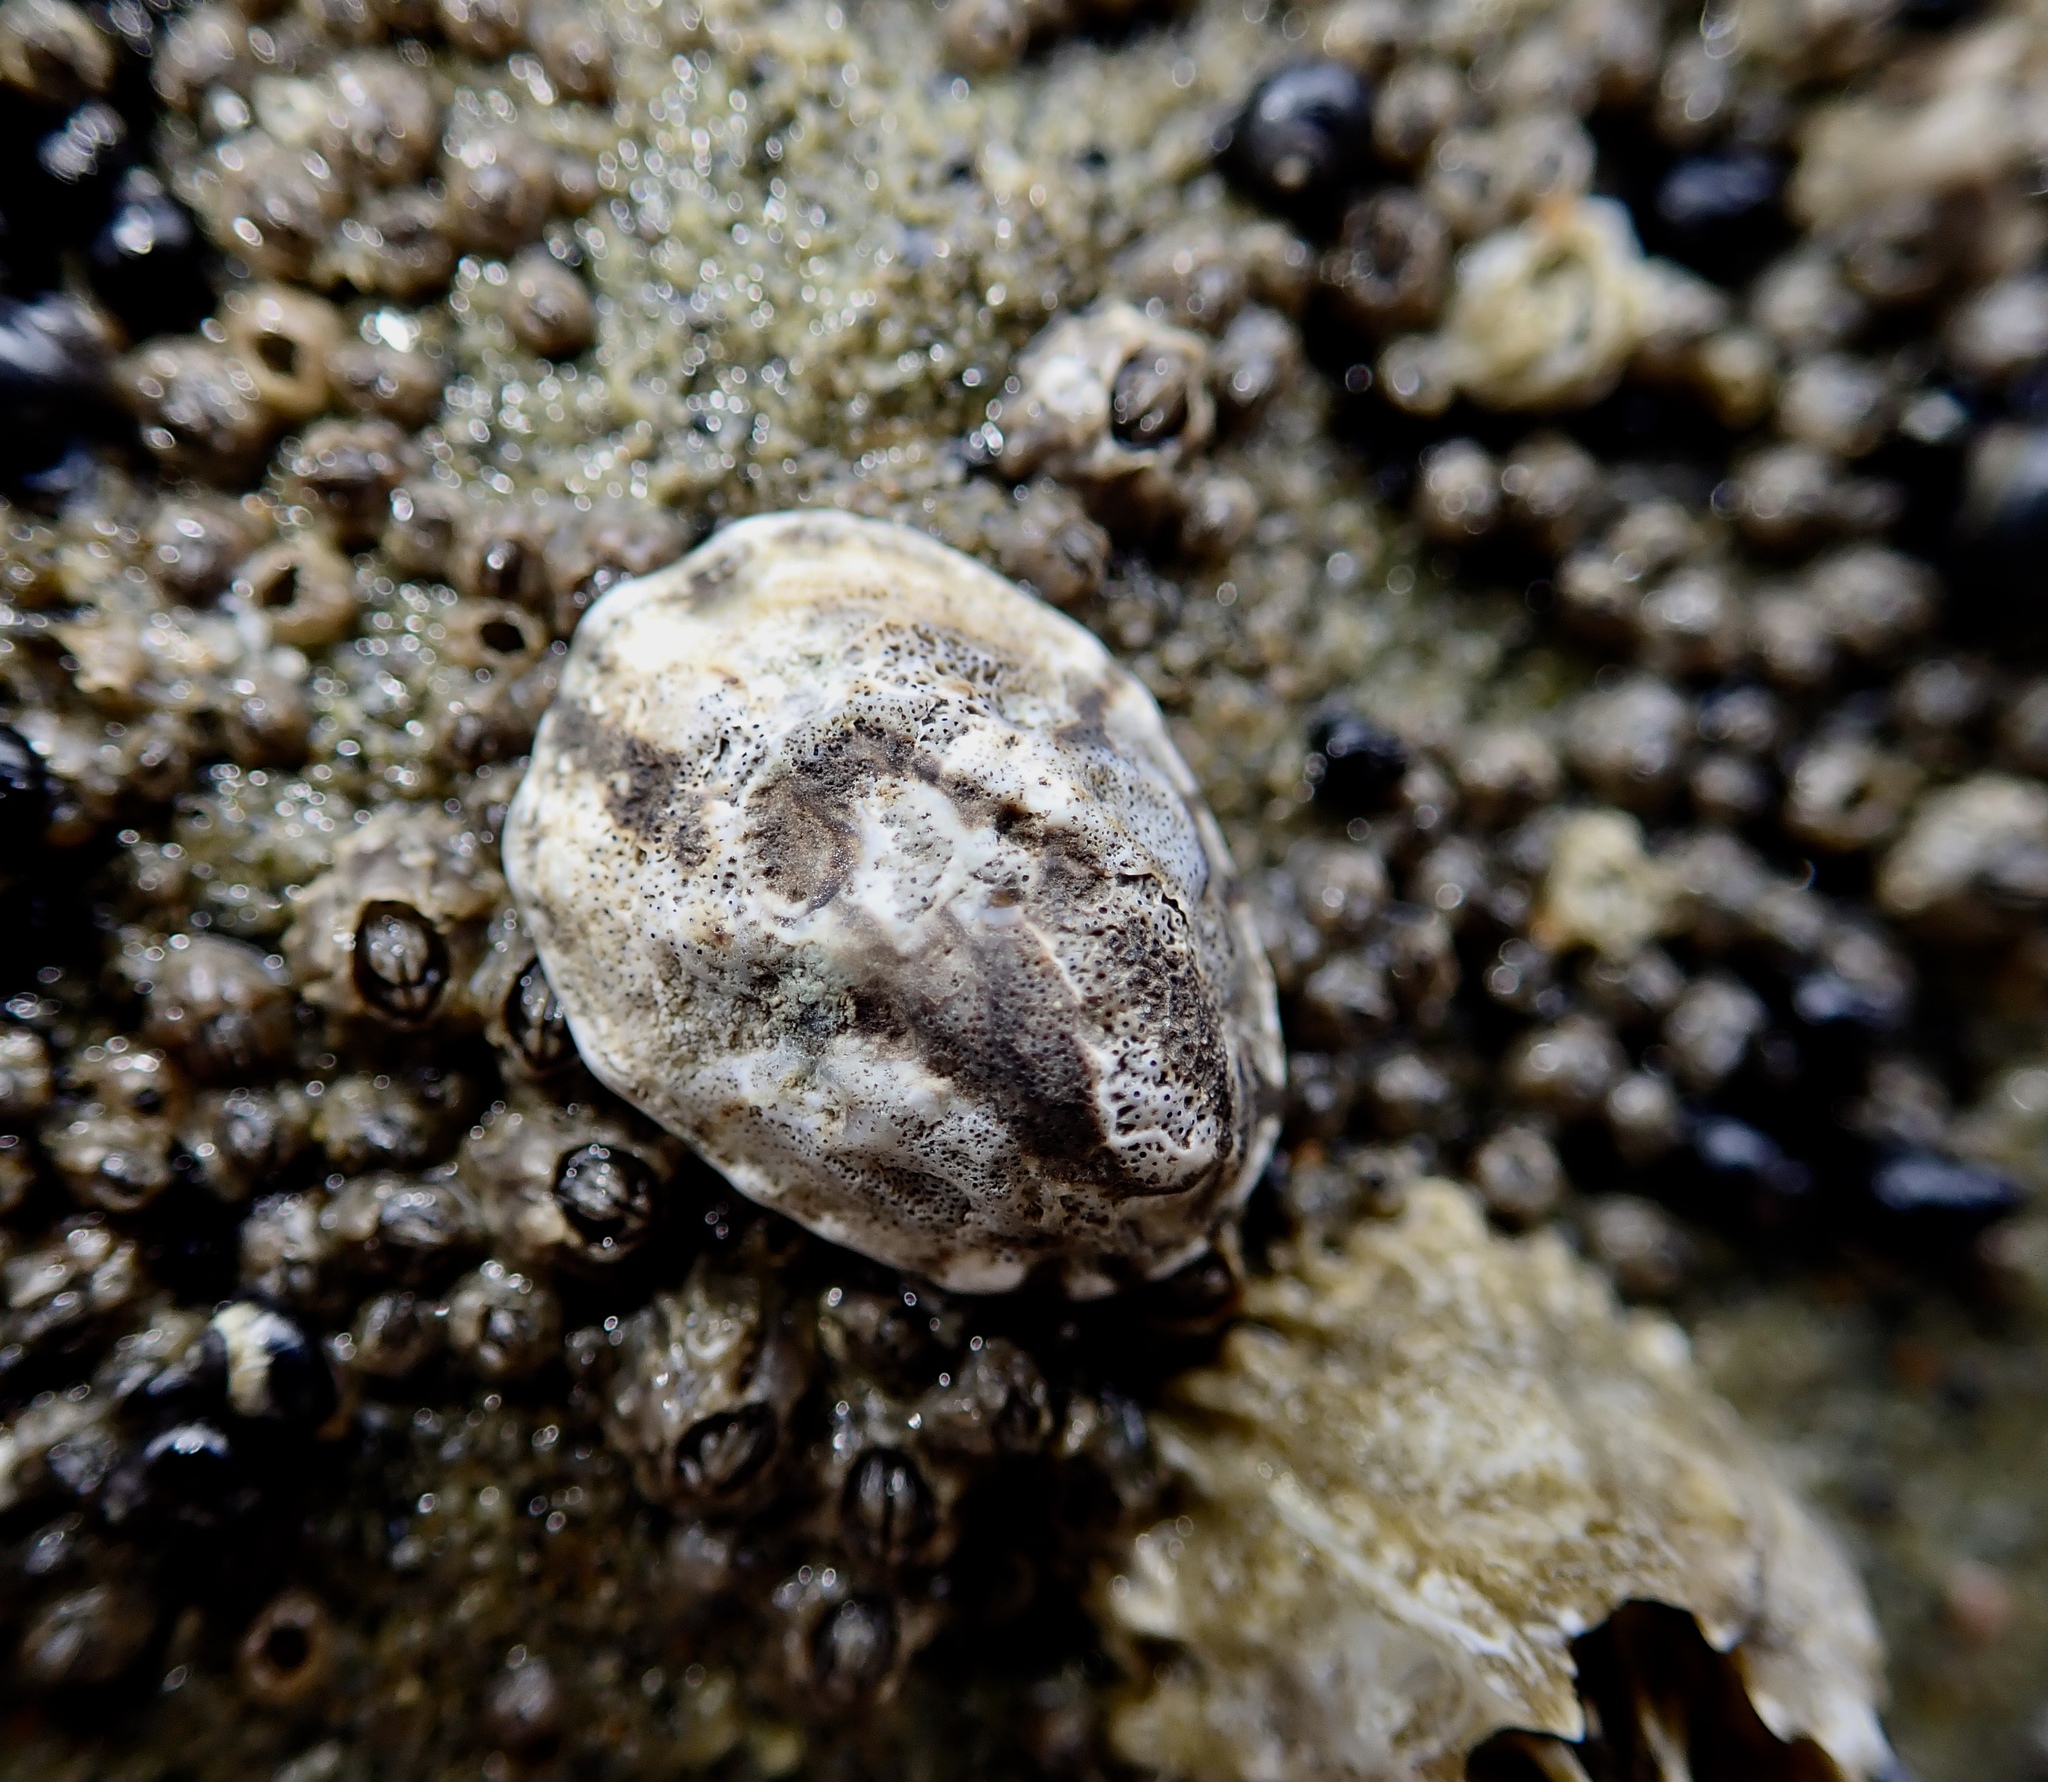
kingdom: Animalia
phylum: Mollusca
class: Gastropoda
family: Lottiidae
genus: Lottia
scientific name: Lottia digitalis
